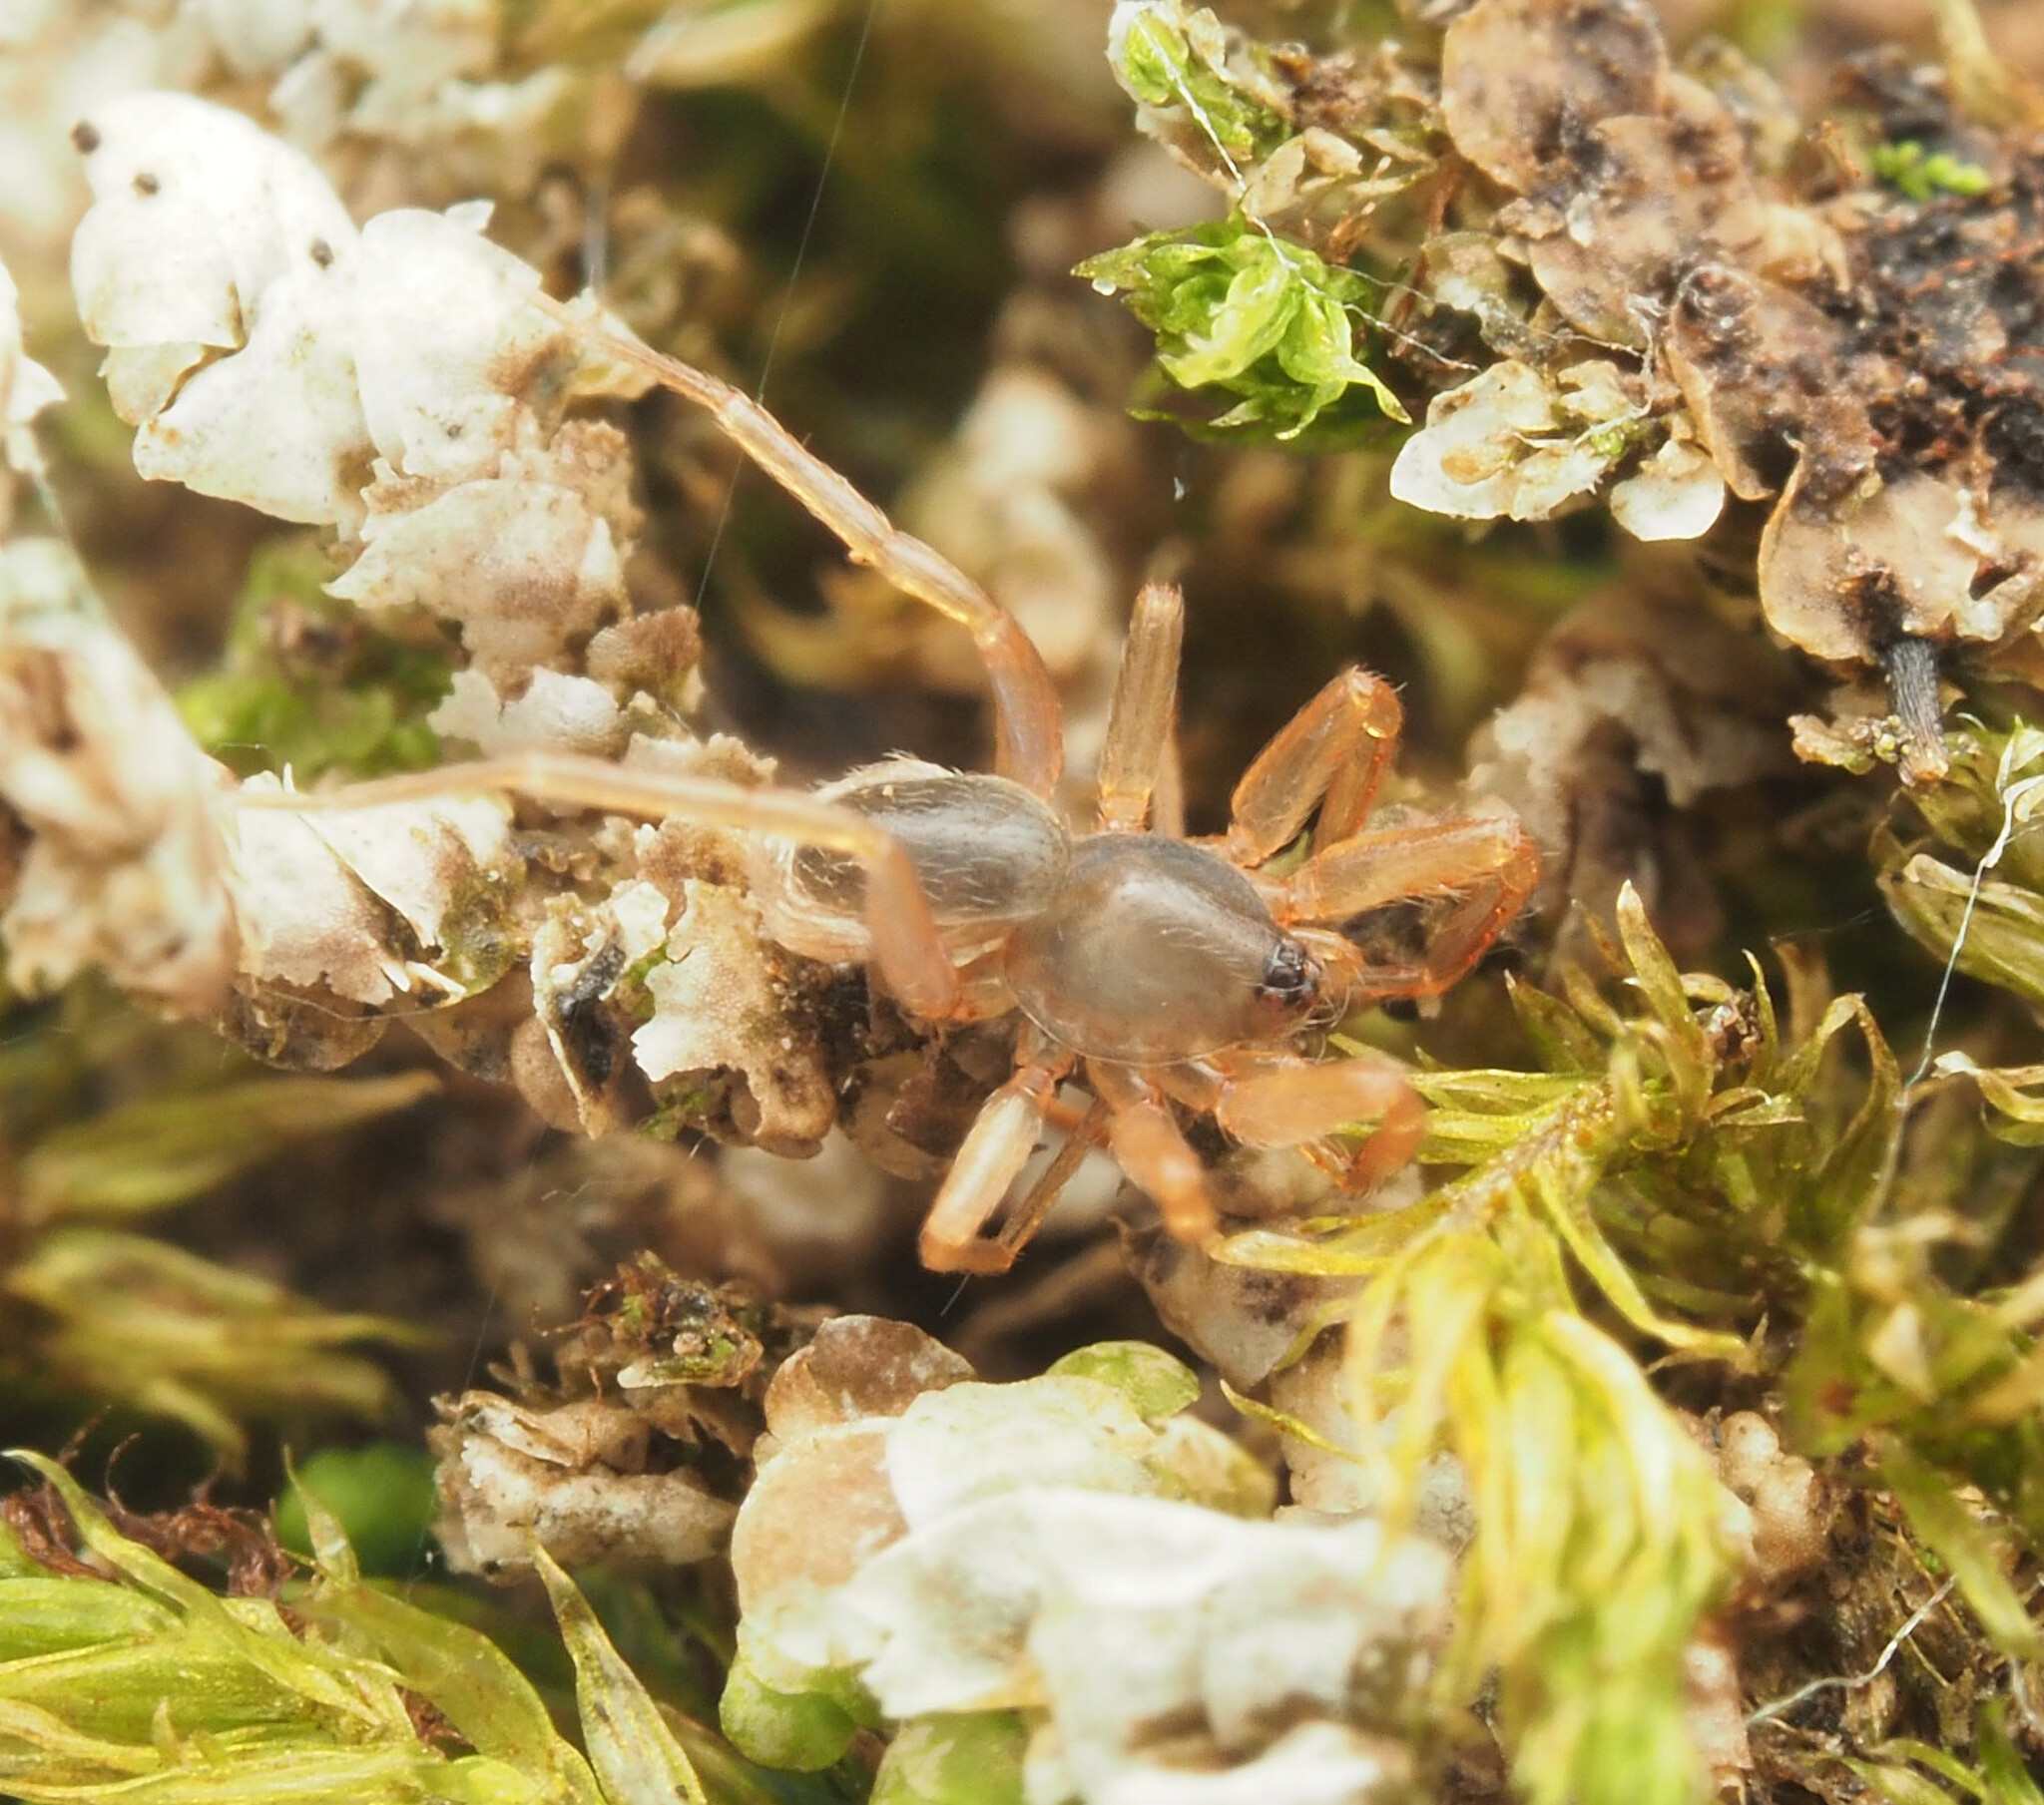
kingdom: Animalia
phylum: Arthropoda
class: Arachnida
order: Araneae
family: Oonopidae
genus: Ischnothyreus
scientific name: Ischnothyreus hamatus
